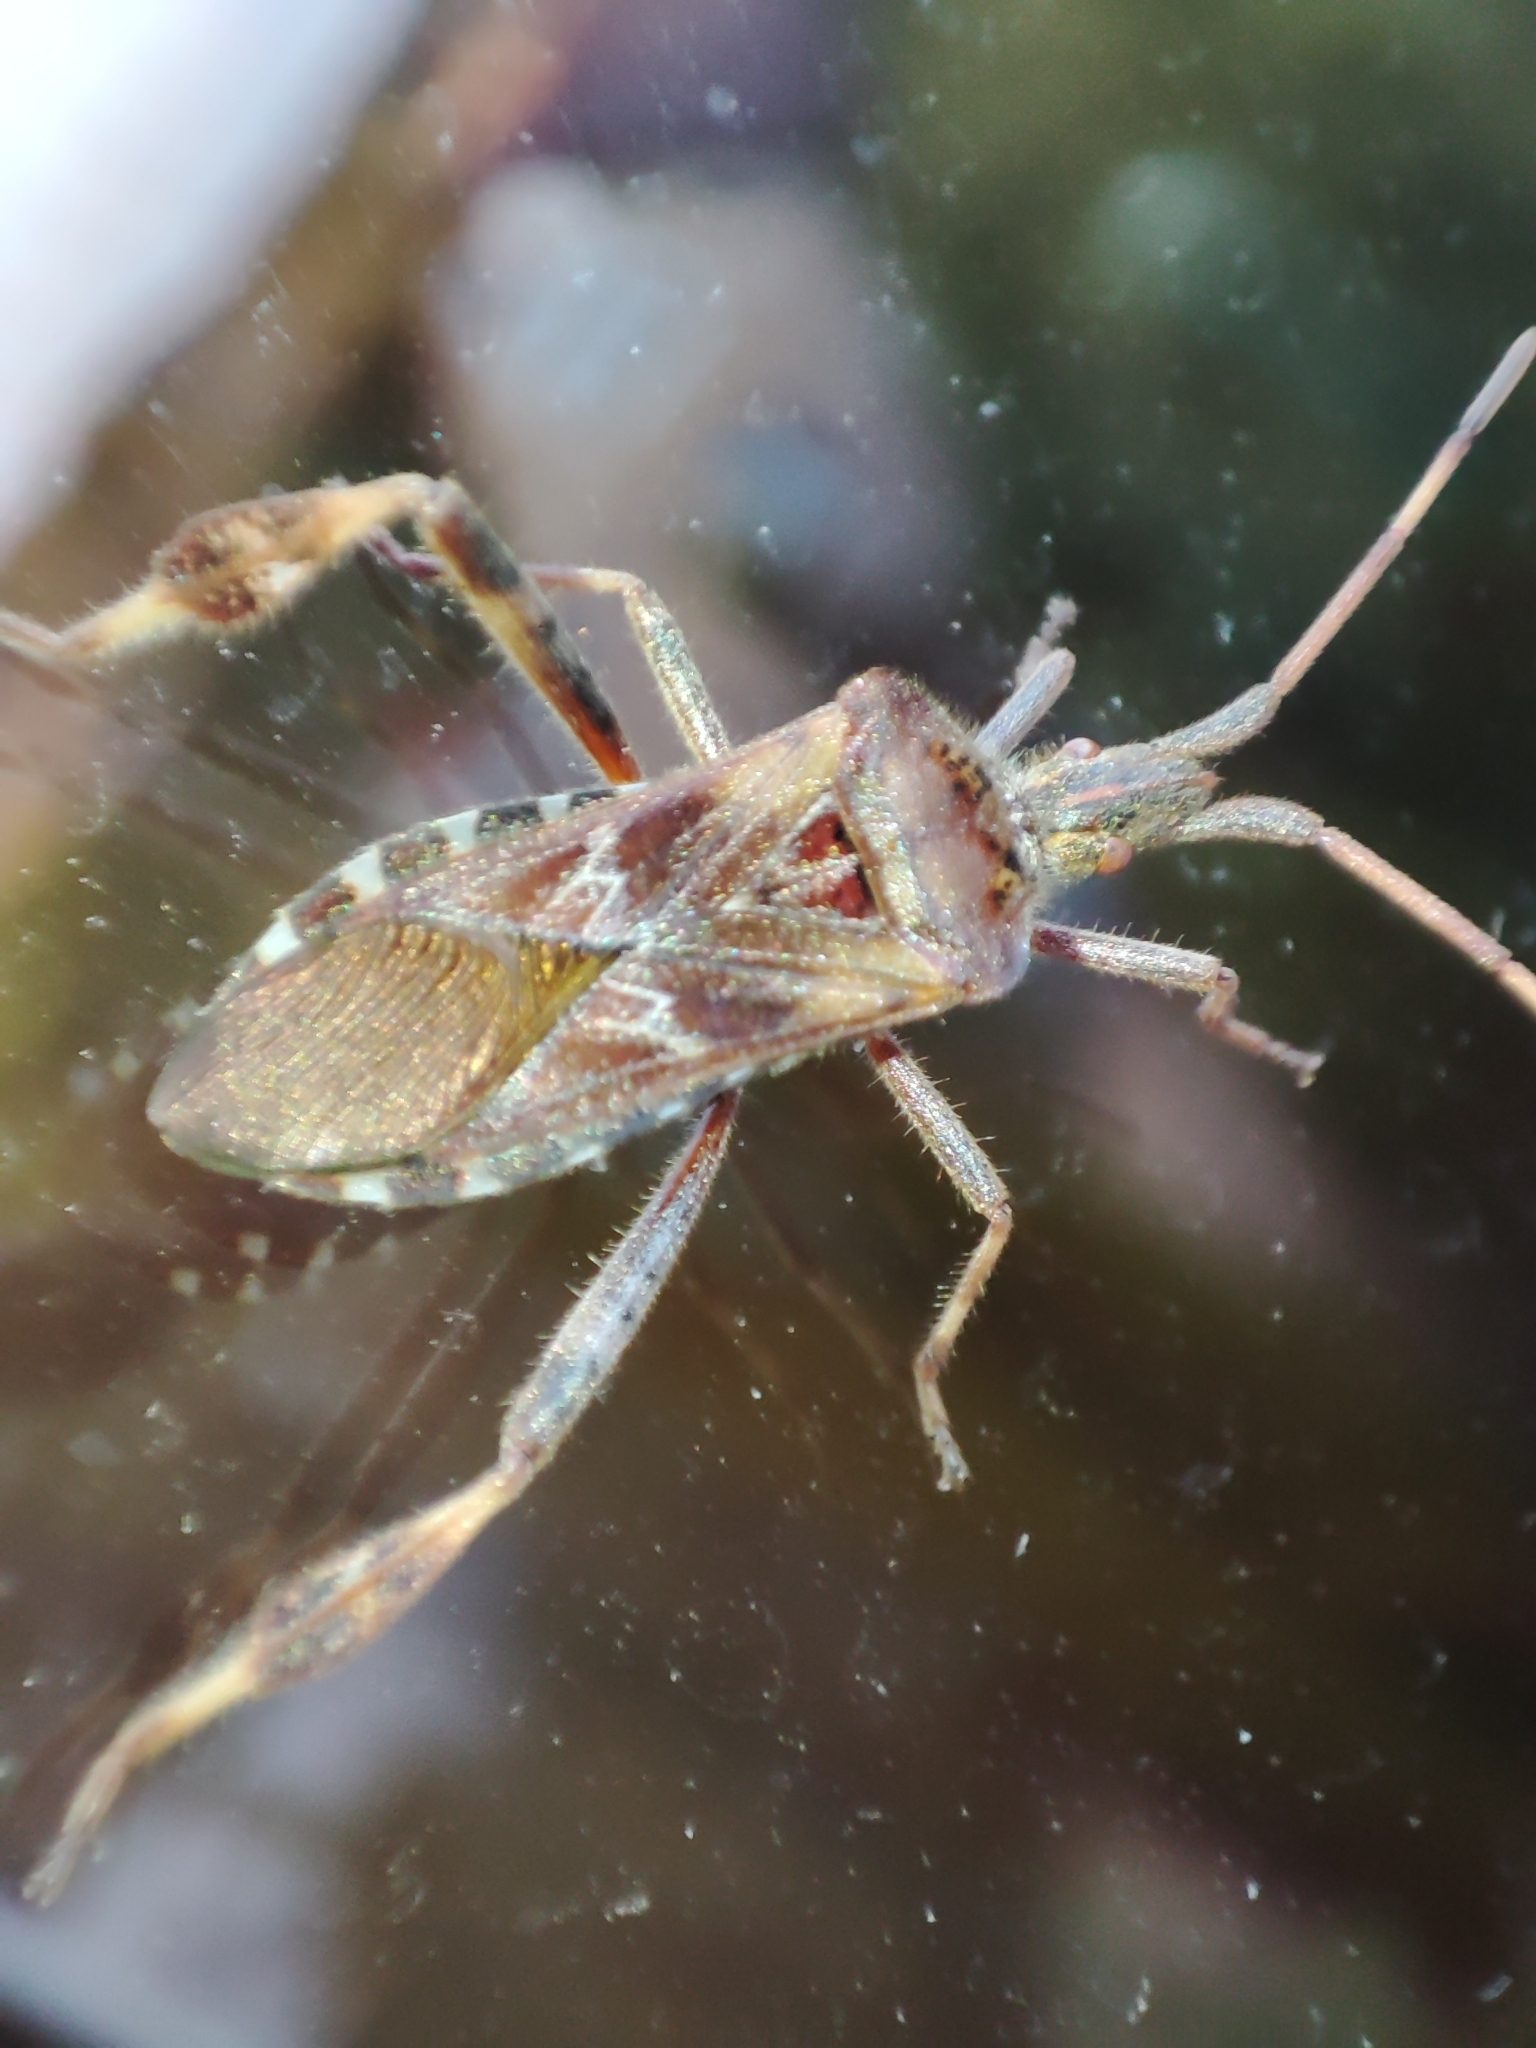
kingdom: Animalia
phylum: Arthropoda
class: Insecta
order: Hemiptera
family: Coreidae
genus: Leptoglossus
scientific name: Leptoglossus occidentalis
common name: Western conifer-seed bug
